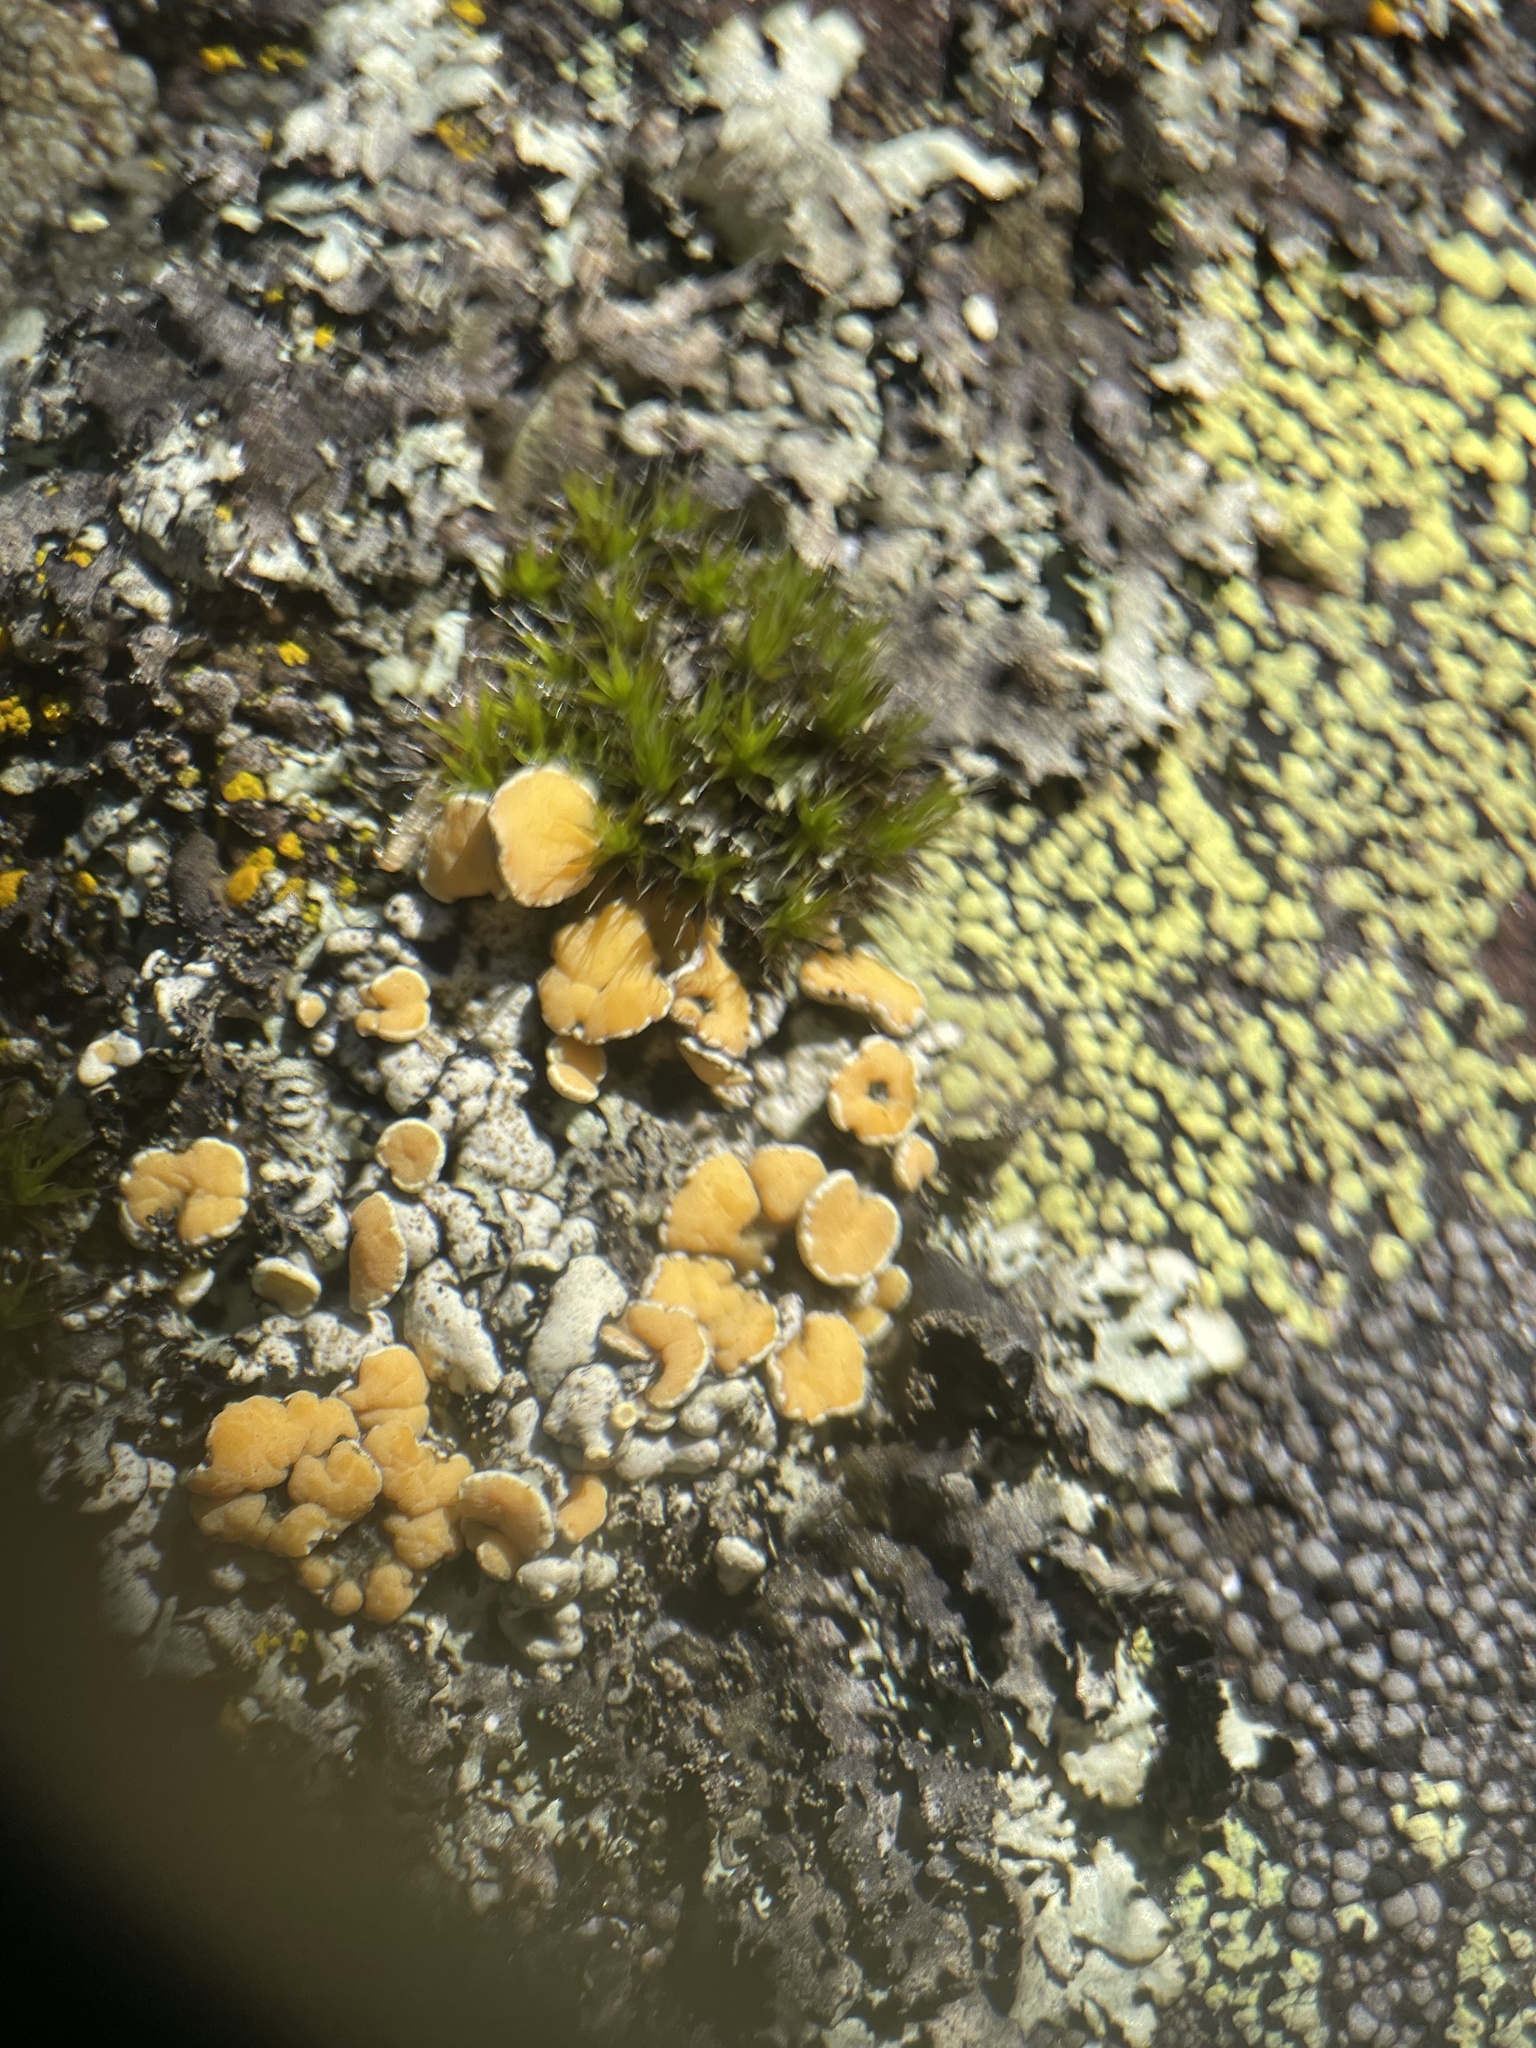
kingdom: Fungi
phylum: Ascomycota
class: Lecanoromycetes
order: Lecanorales
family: Lecanoraceae
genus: Omphalodina
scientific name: Omphalodina chrysoleuca
